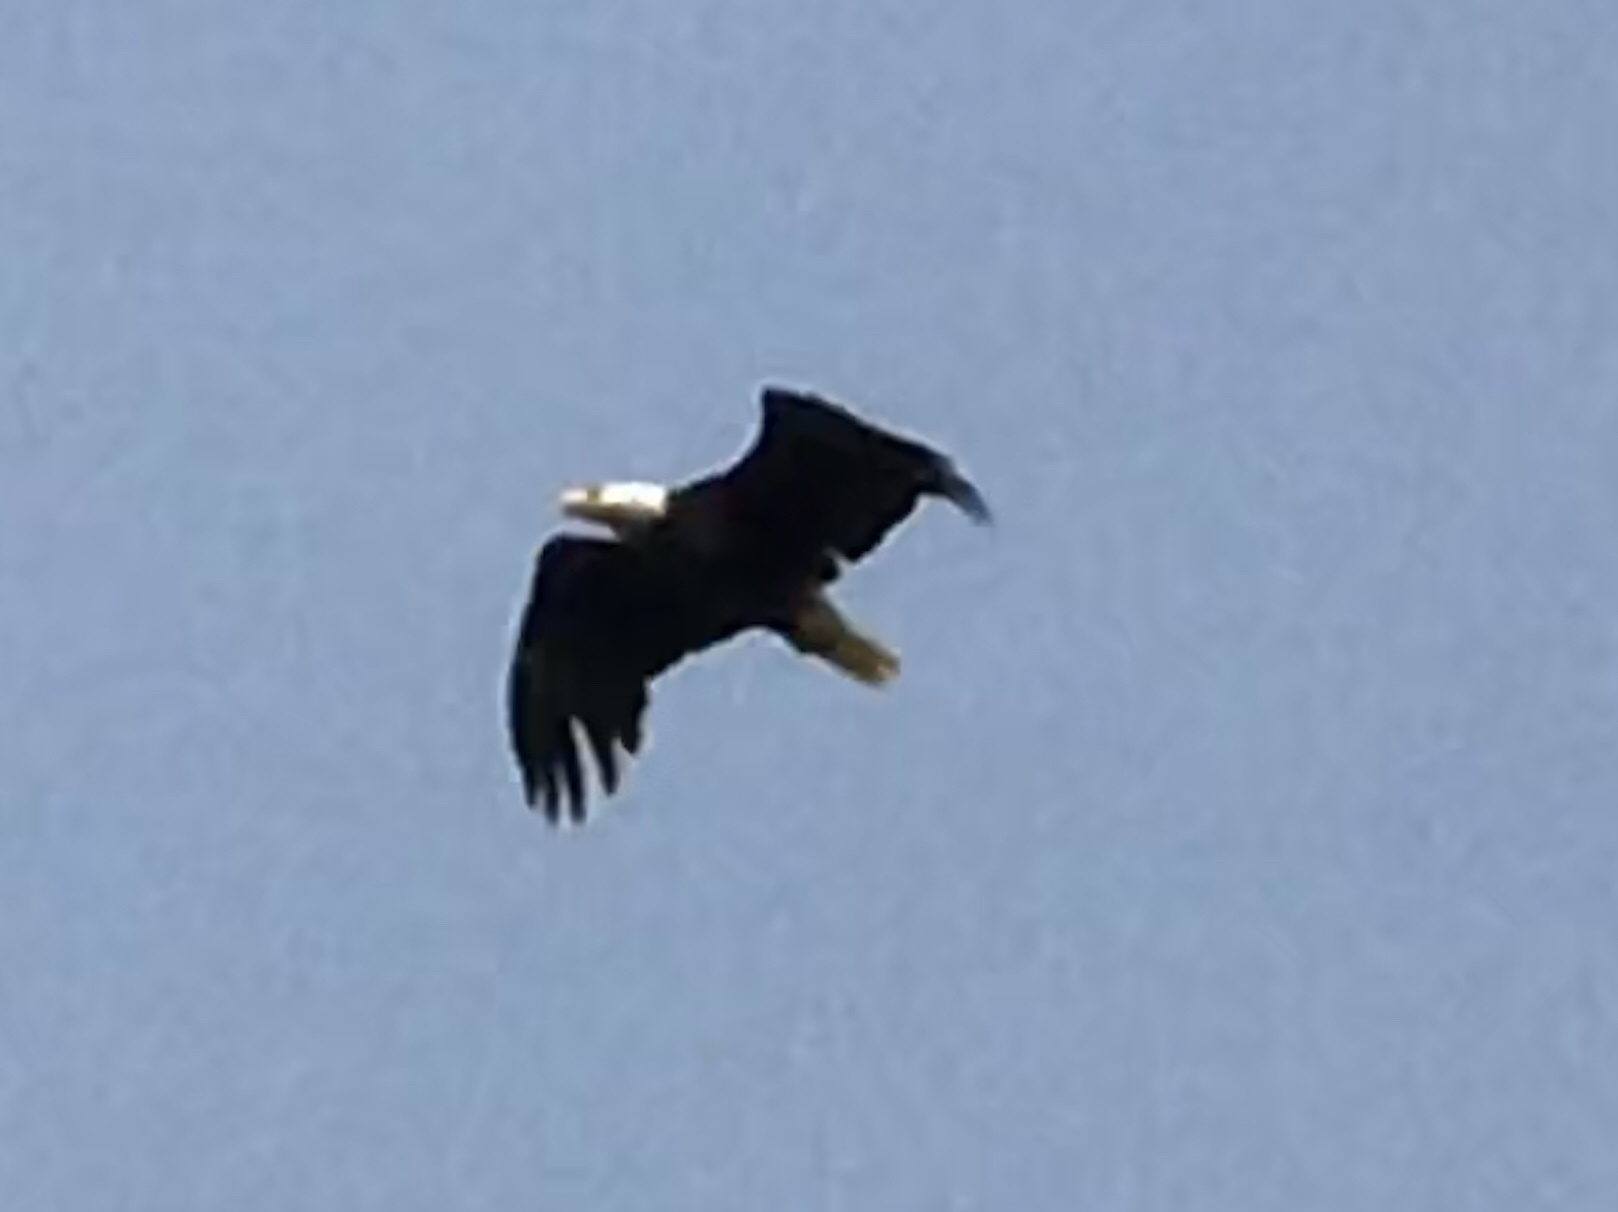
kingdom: Animalia
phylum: Chordata
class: Aves
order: Accipitriformes
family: Accipitridae
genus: Haliaeetus
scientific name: Haliaeetus leucocephalus
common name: Bald eagle
